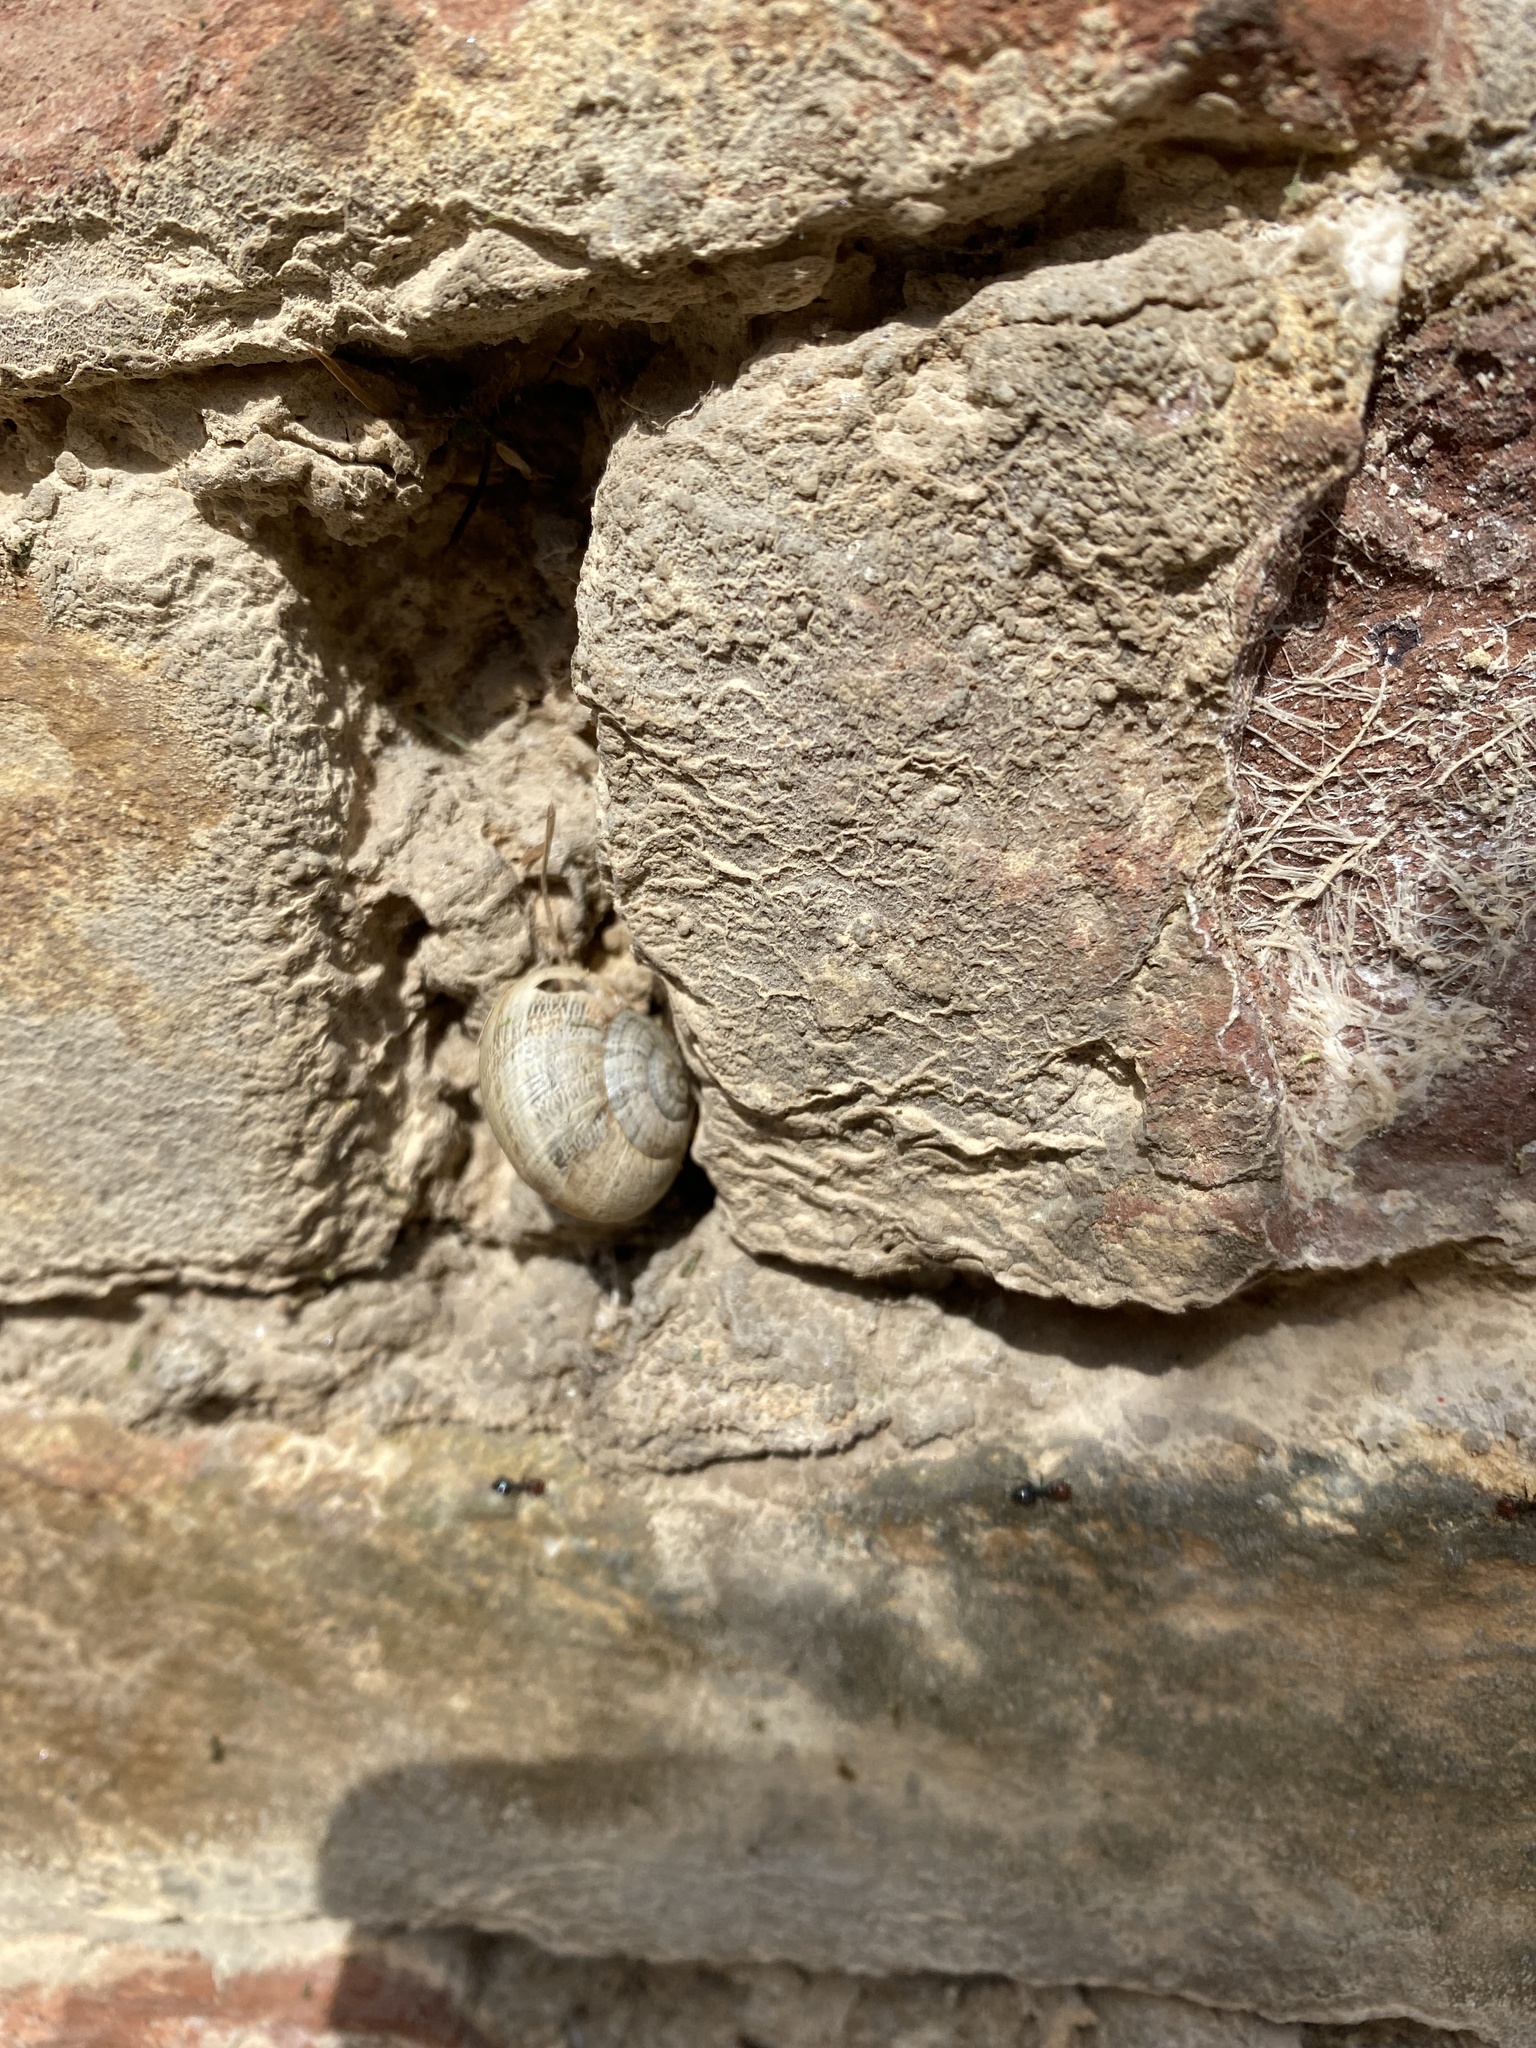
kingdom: Animalia
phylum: Mollusca
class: Gastropoda
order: Stylommatophora
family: Helicidae
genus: Eobania
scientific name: Eobania vermiculata
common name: Chocolateband snail
